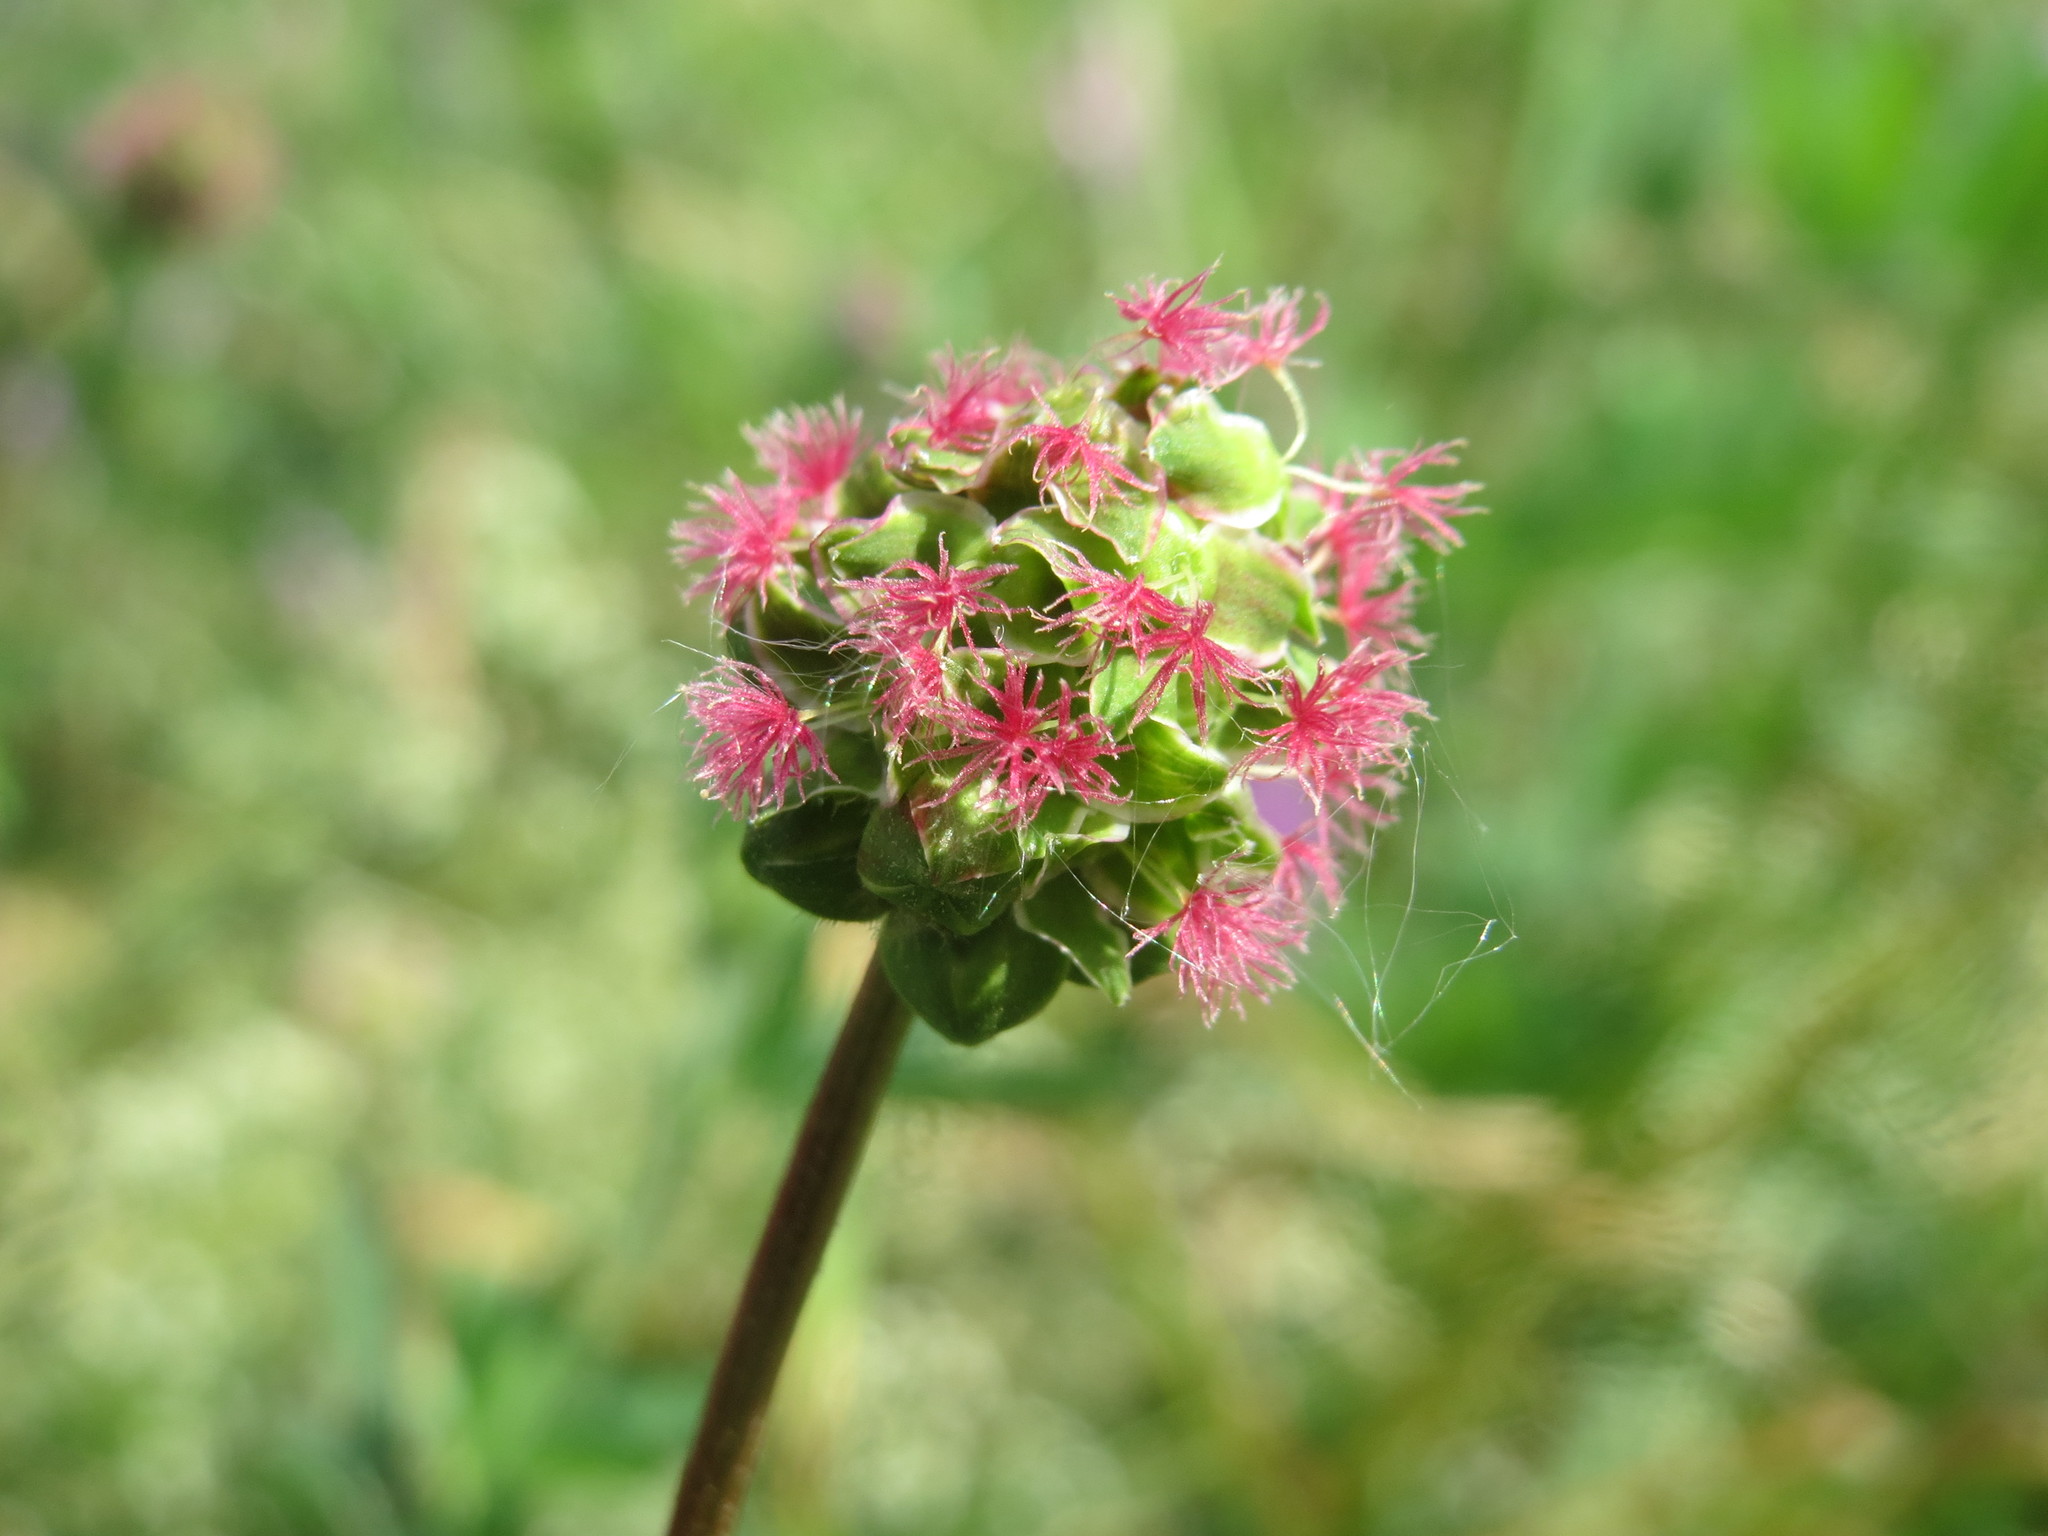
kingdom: Plantae
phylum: Tracheophyta
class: Magnoliopsida
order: Rosales
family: Rosaceae
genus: Poterium
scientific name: Poterium sanguisorba
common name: Salad burnet
